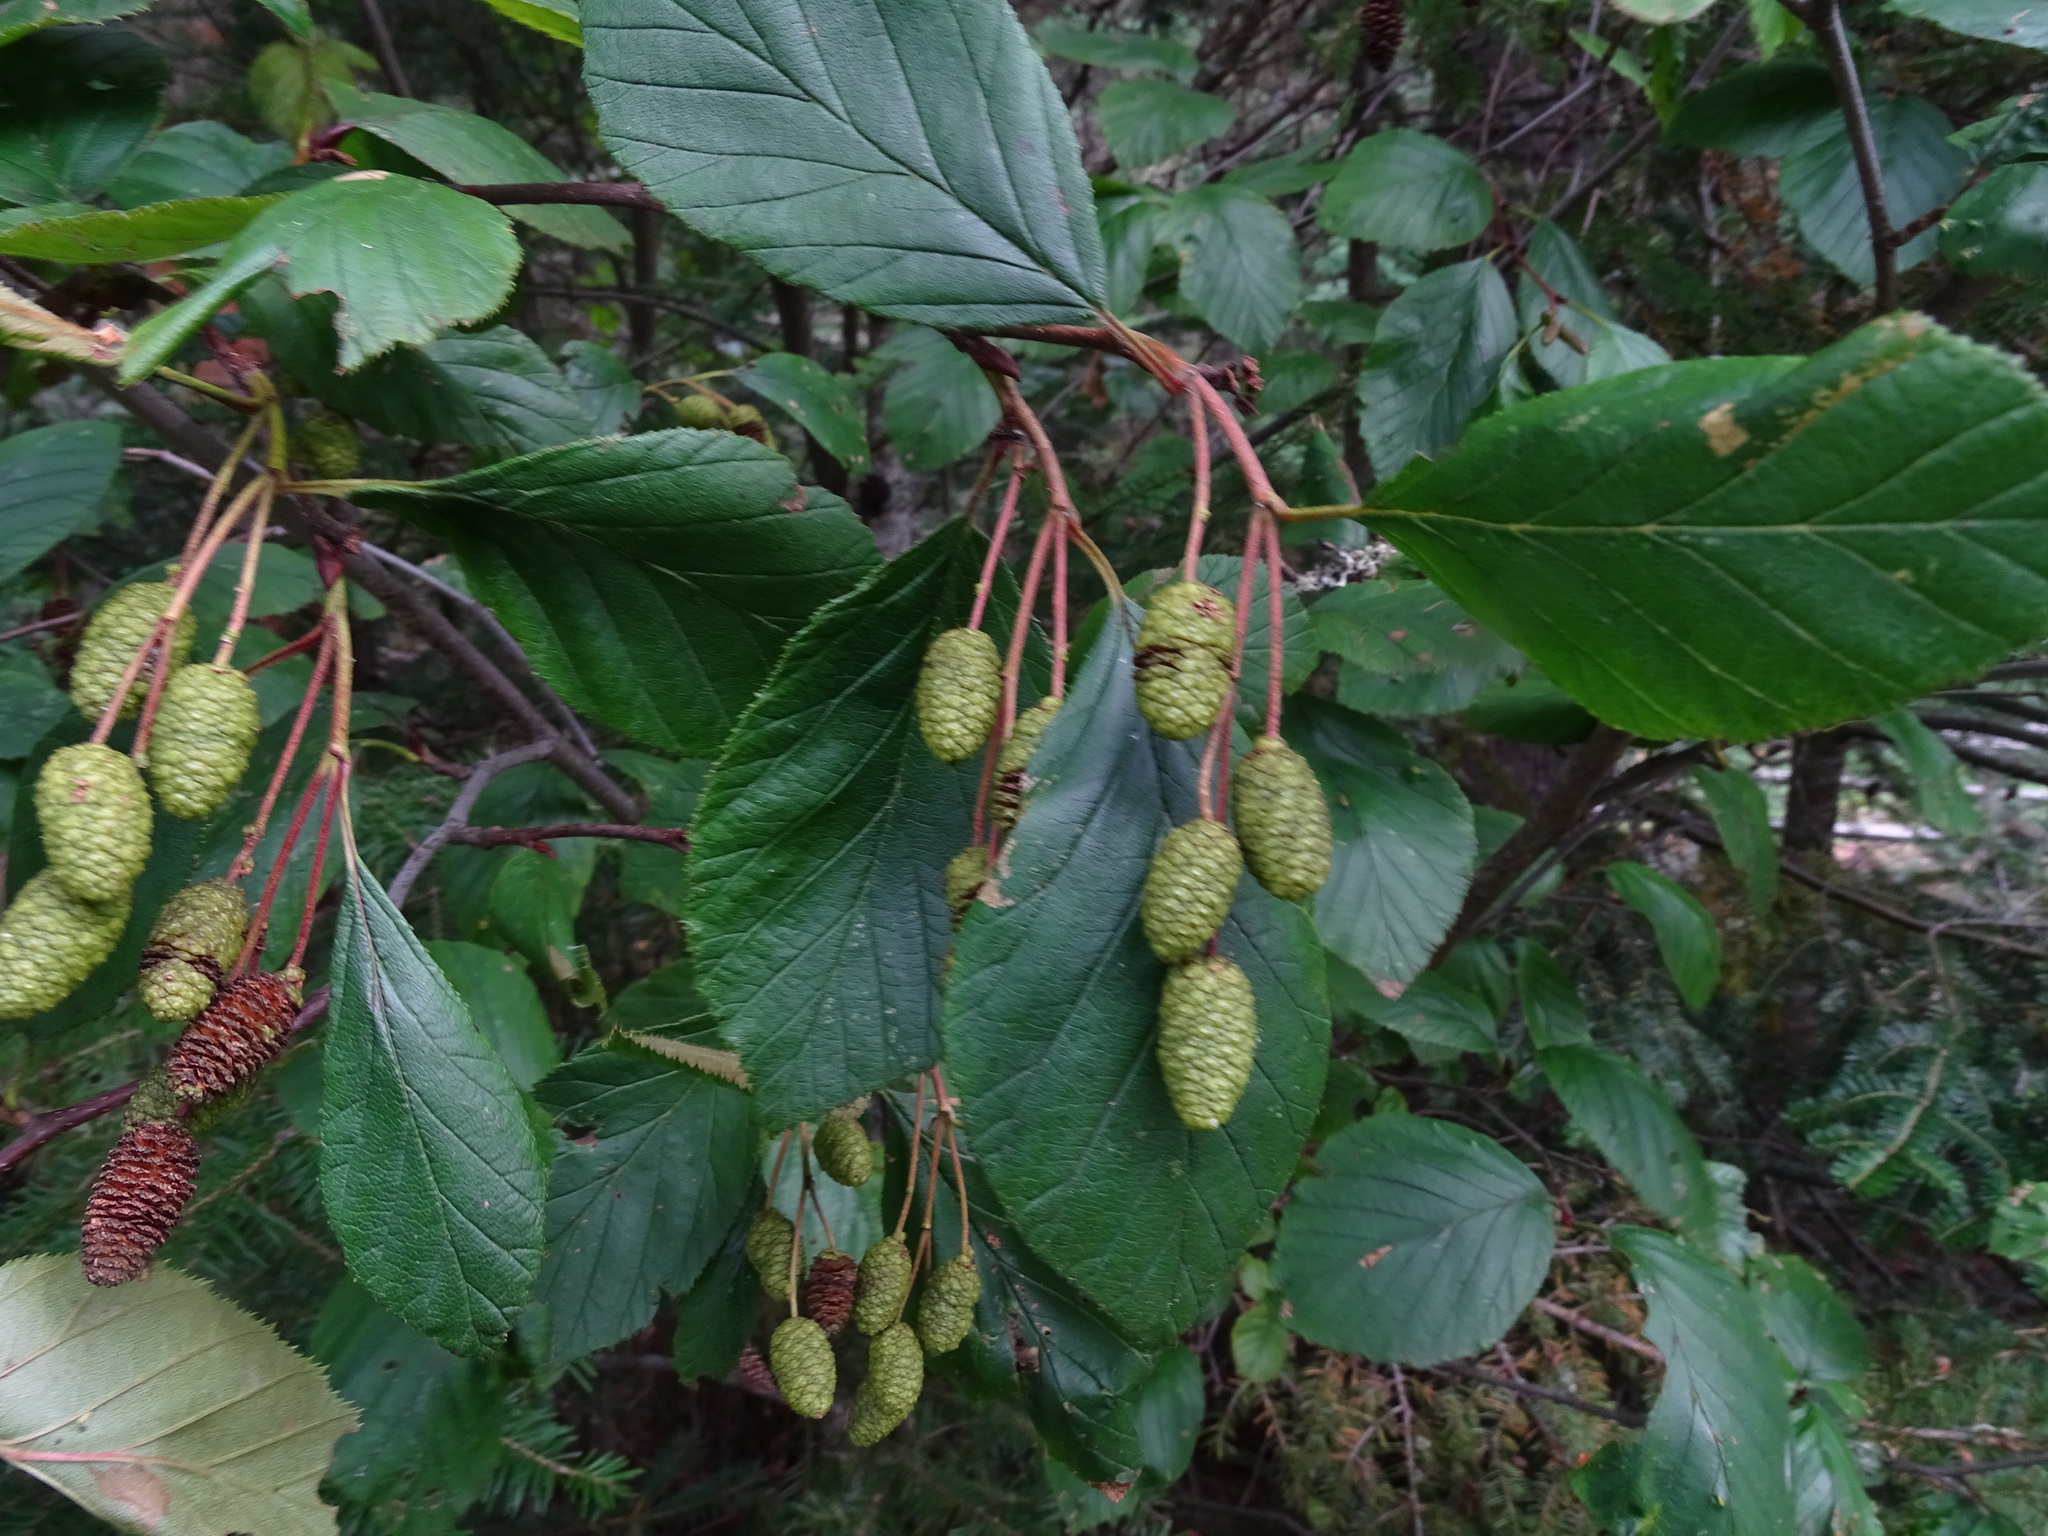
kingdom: Plantae
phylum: Tracheophyta
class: Magnoliopsida
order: Fagales
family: Betulaceae
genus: Alnus
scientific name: Alnus alnobetula
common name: Green alder
